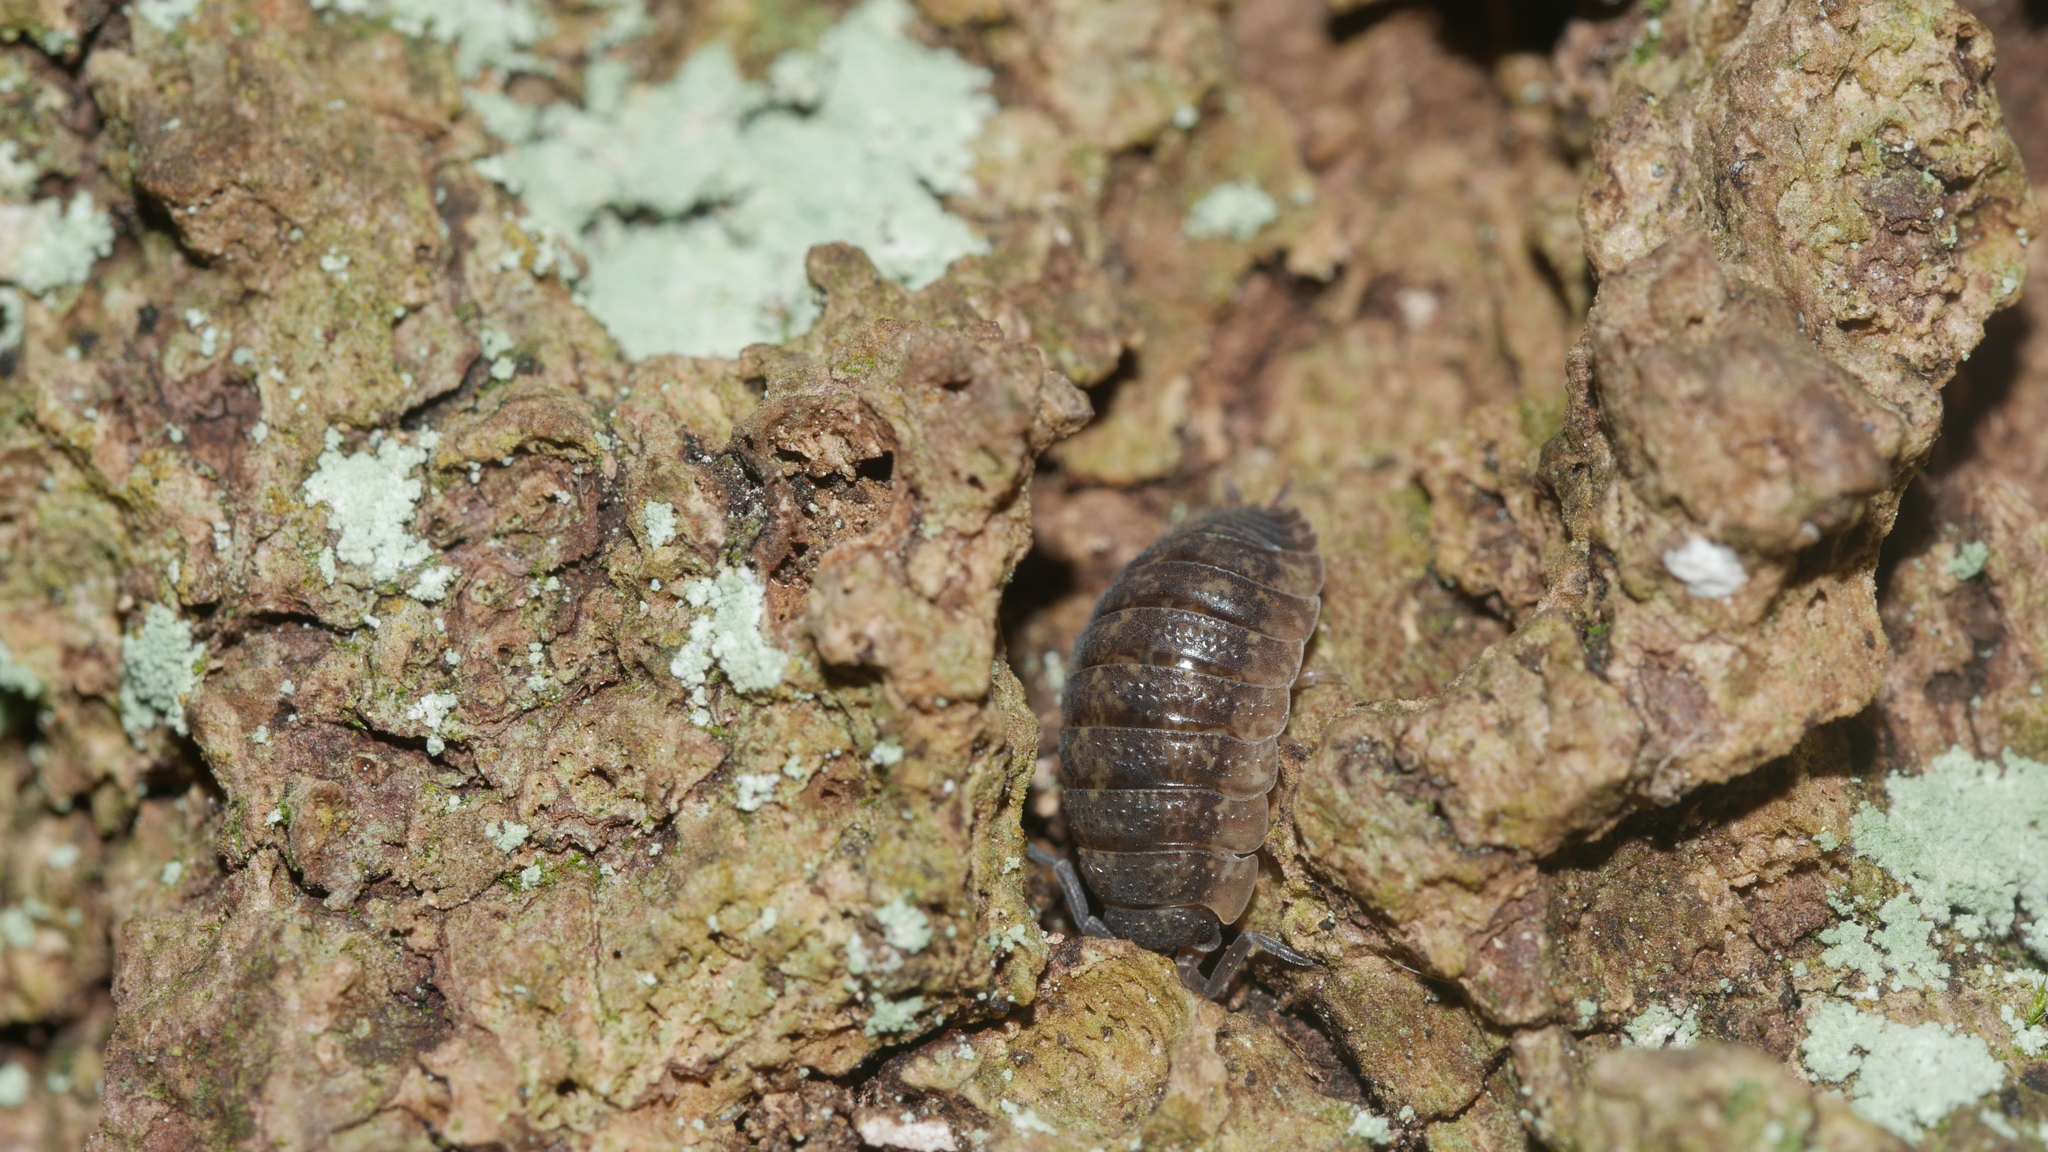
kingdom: Animalia
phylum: Arthropoda
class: Malacostraca
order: Isopoda
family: Porcellionidae
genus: Porcellio
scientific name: Porcellio scaber
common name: Common rough woodlouse
